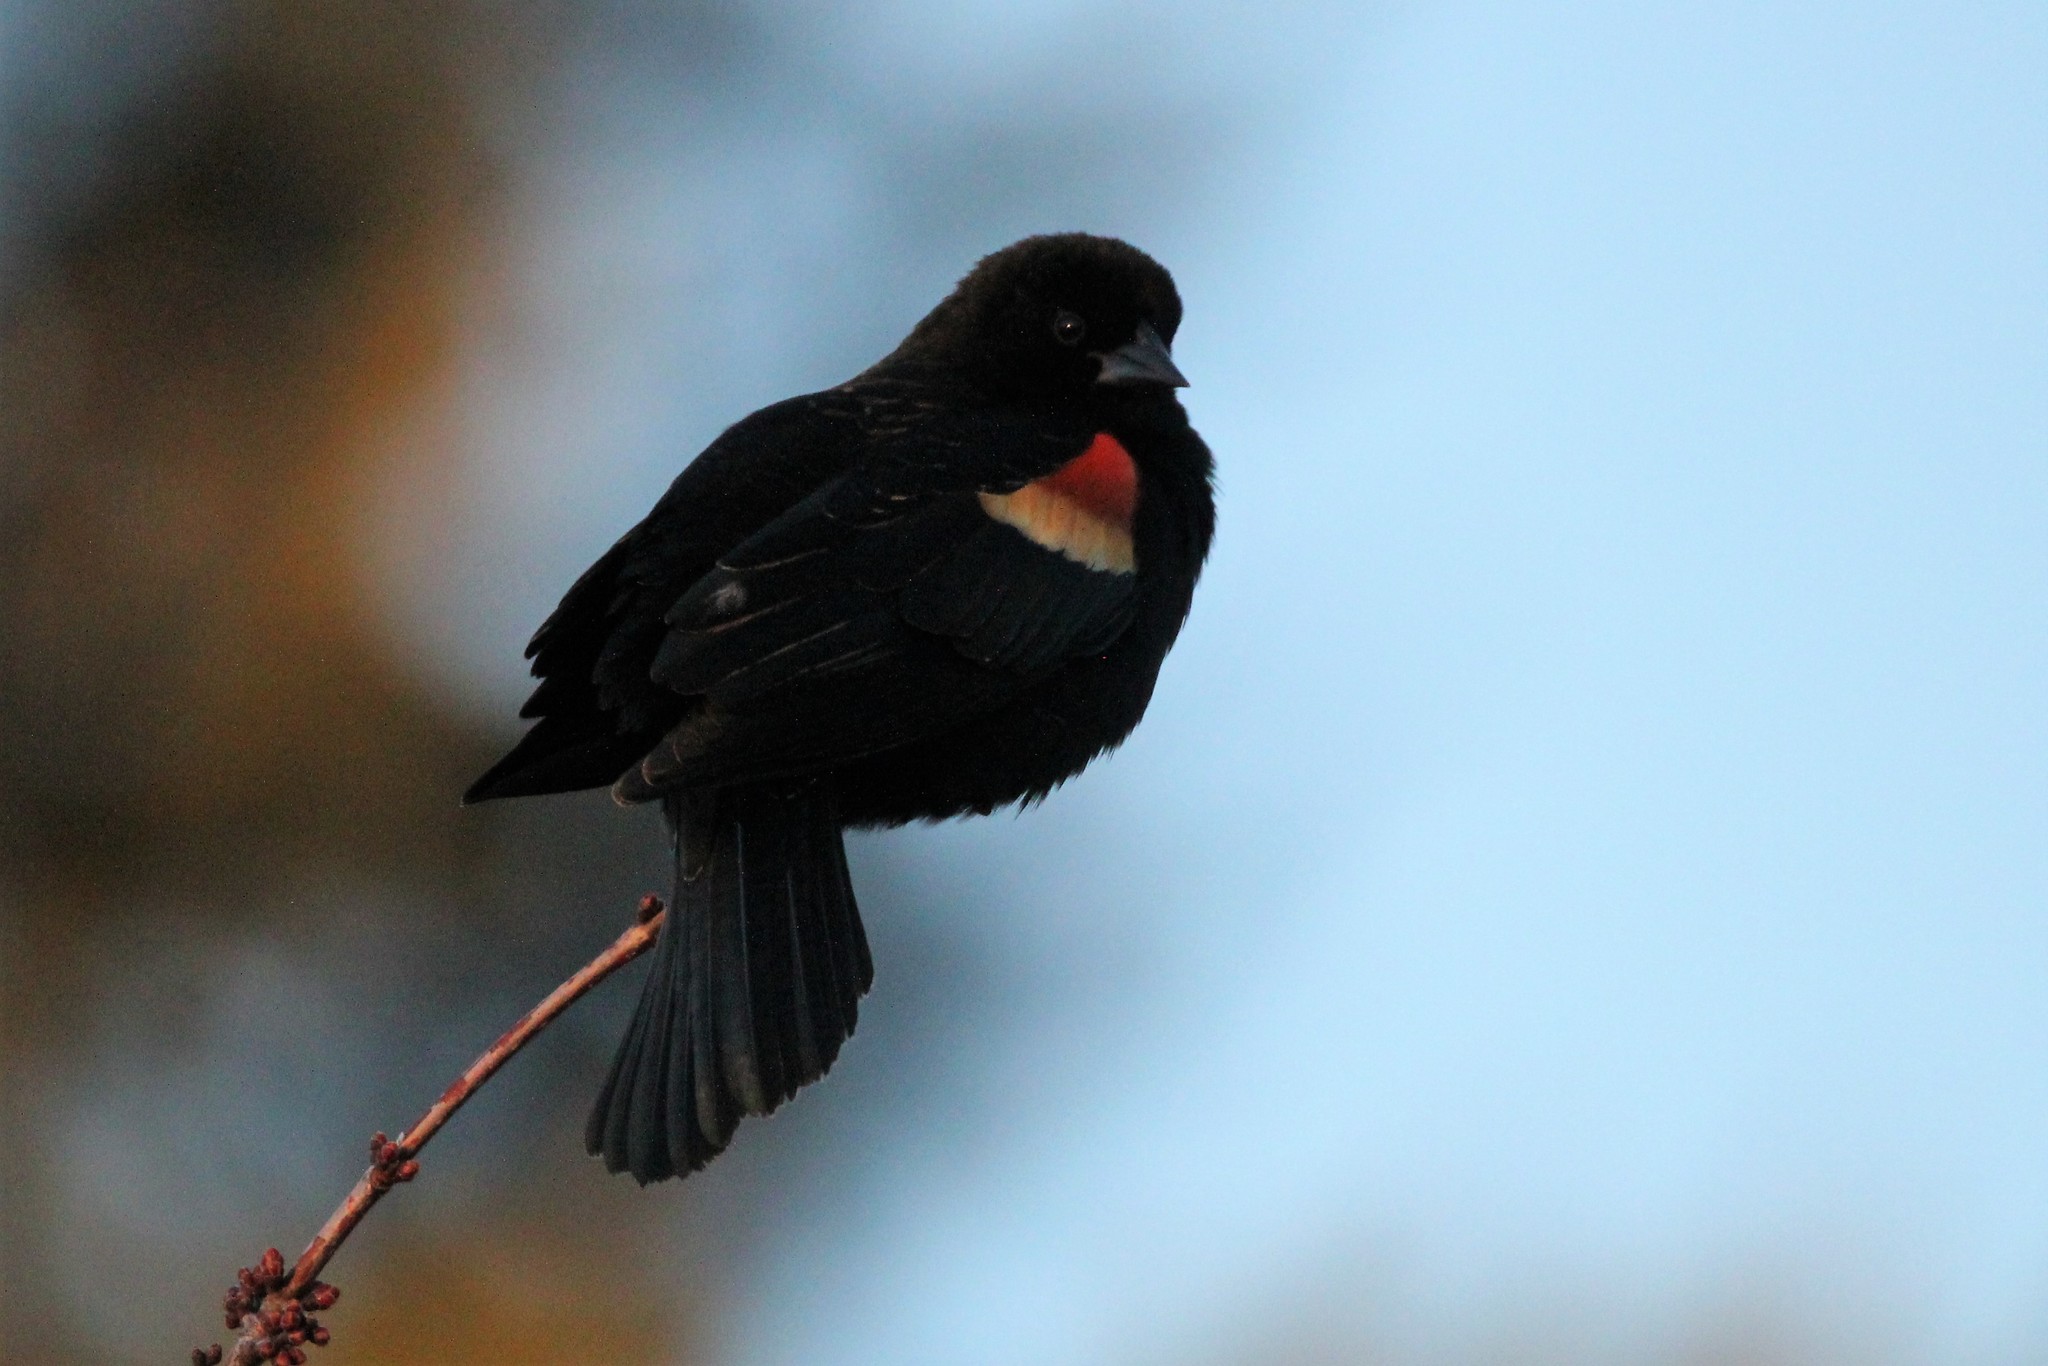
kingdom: Animalia
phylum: Chordata
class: Aves
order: Passeriformes
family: Icteridae
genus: Agelaius
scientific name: Agelaius phoeniceus
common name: Red-winged blackbird
